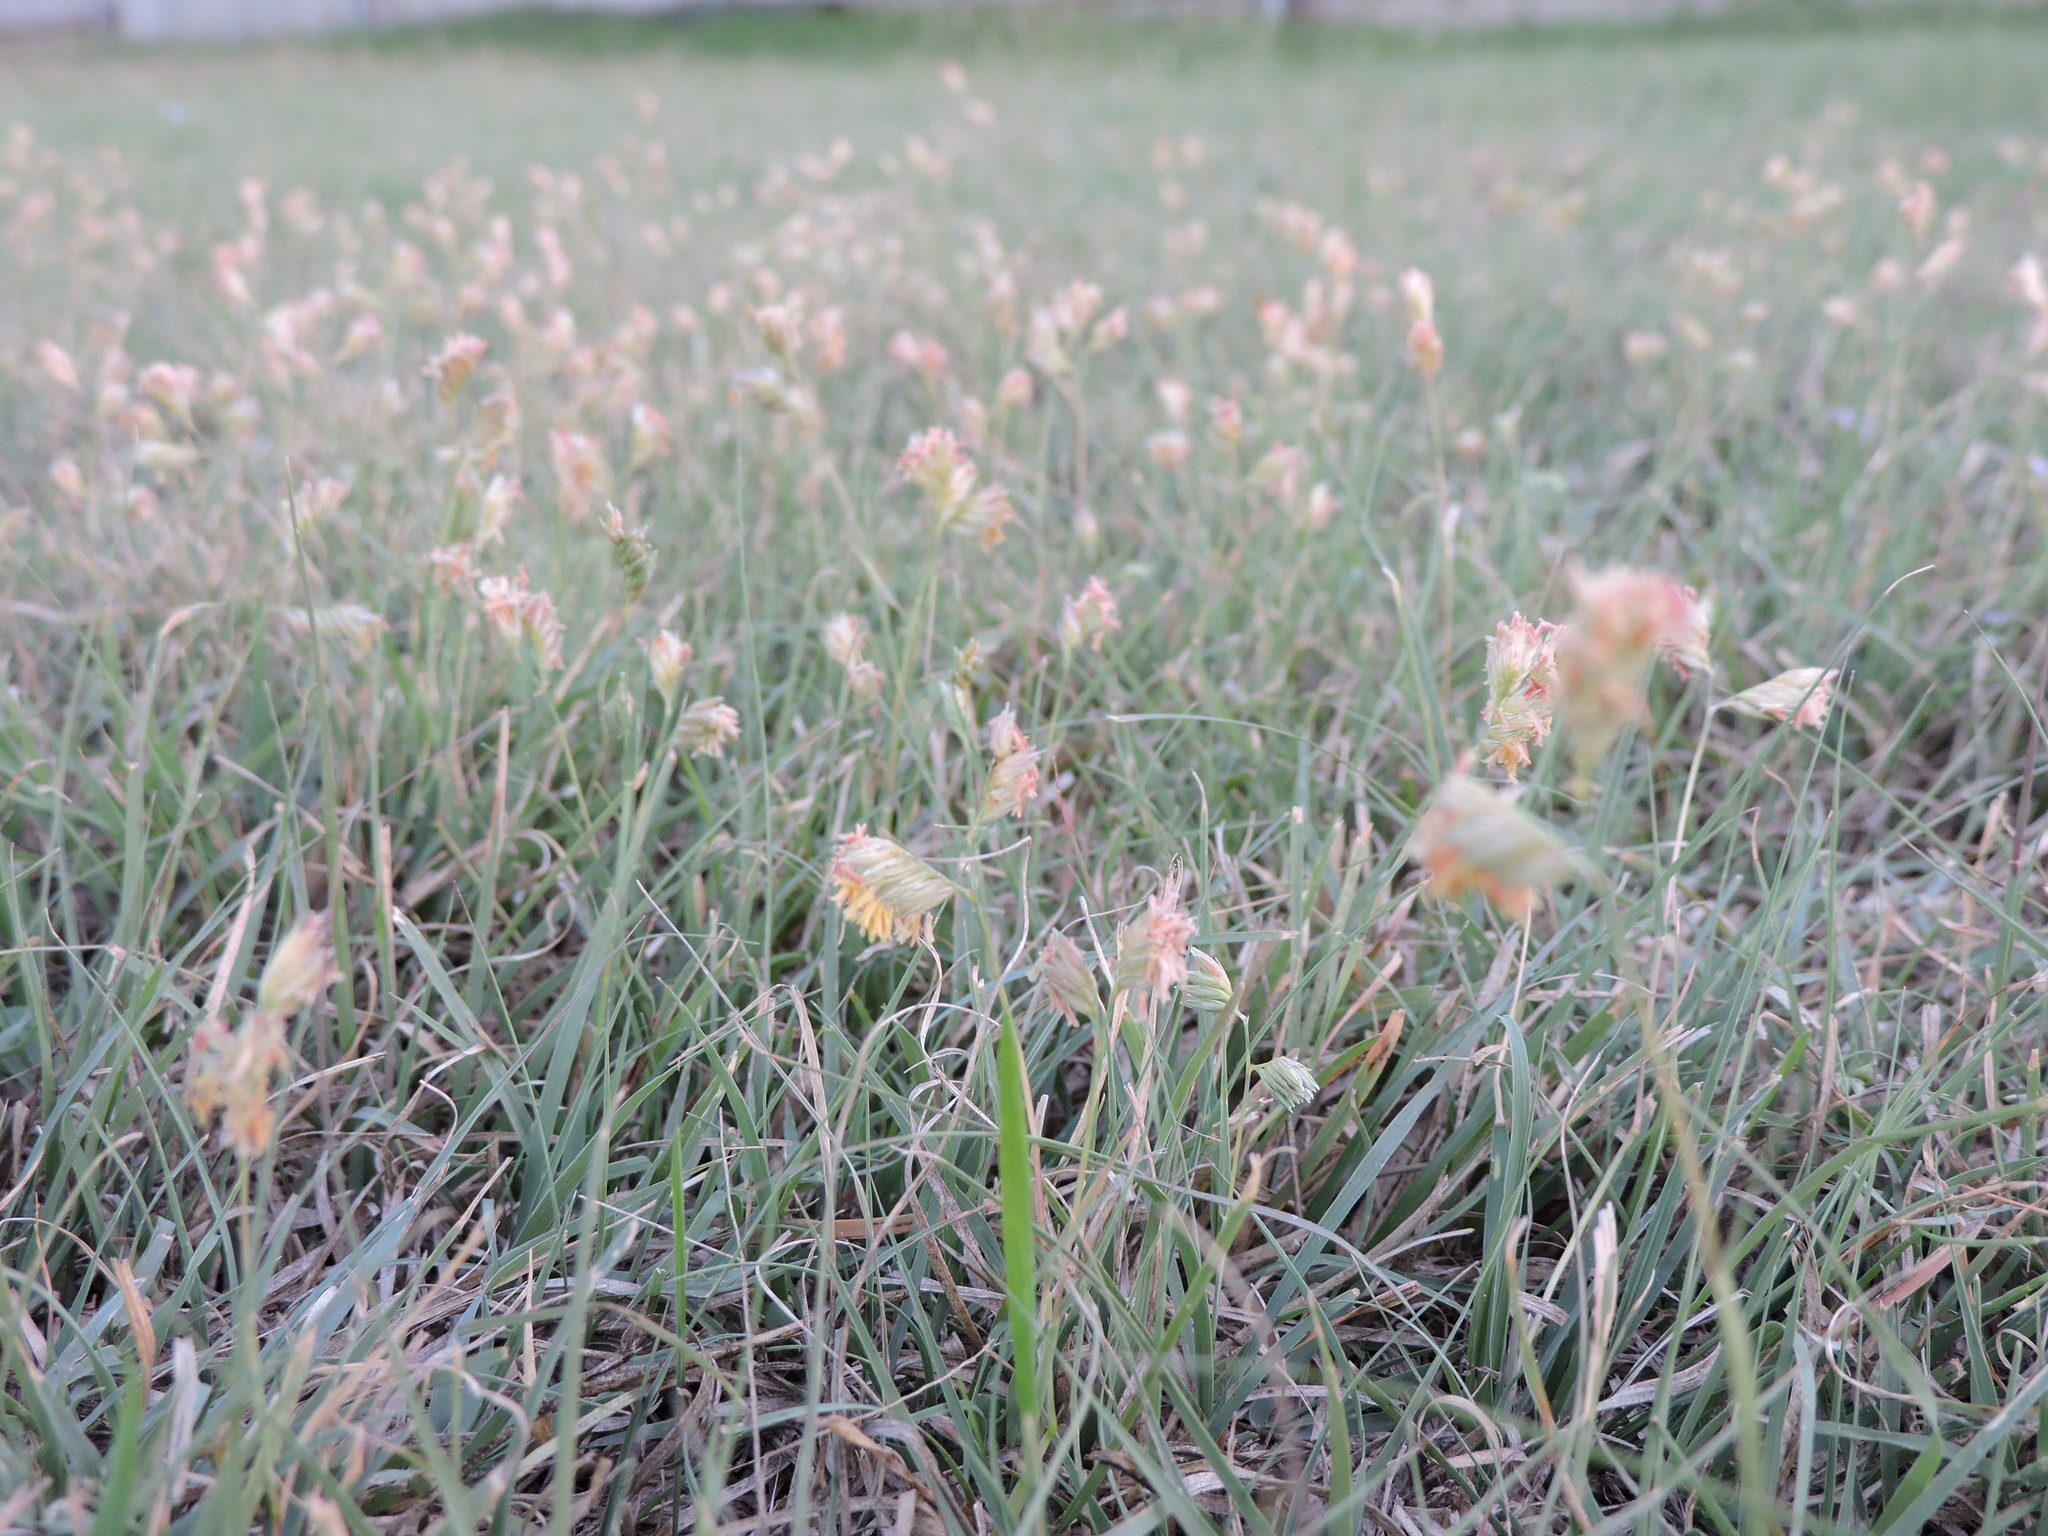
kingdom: Plantae
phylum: Tracheophyta
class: Liliopsida
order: Poales
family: Poaceae
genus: Bouteloua
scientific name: Bouteloua dactyloides
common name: Buffalo grass
